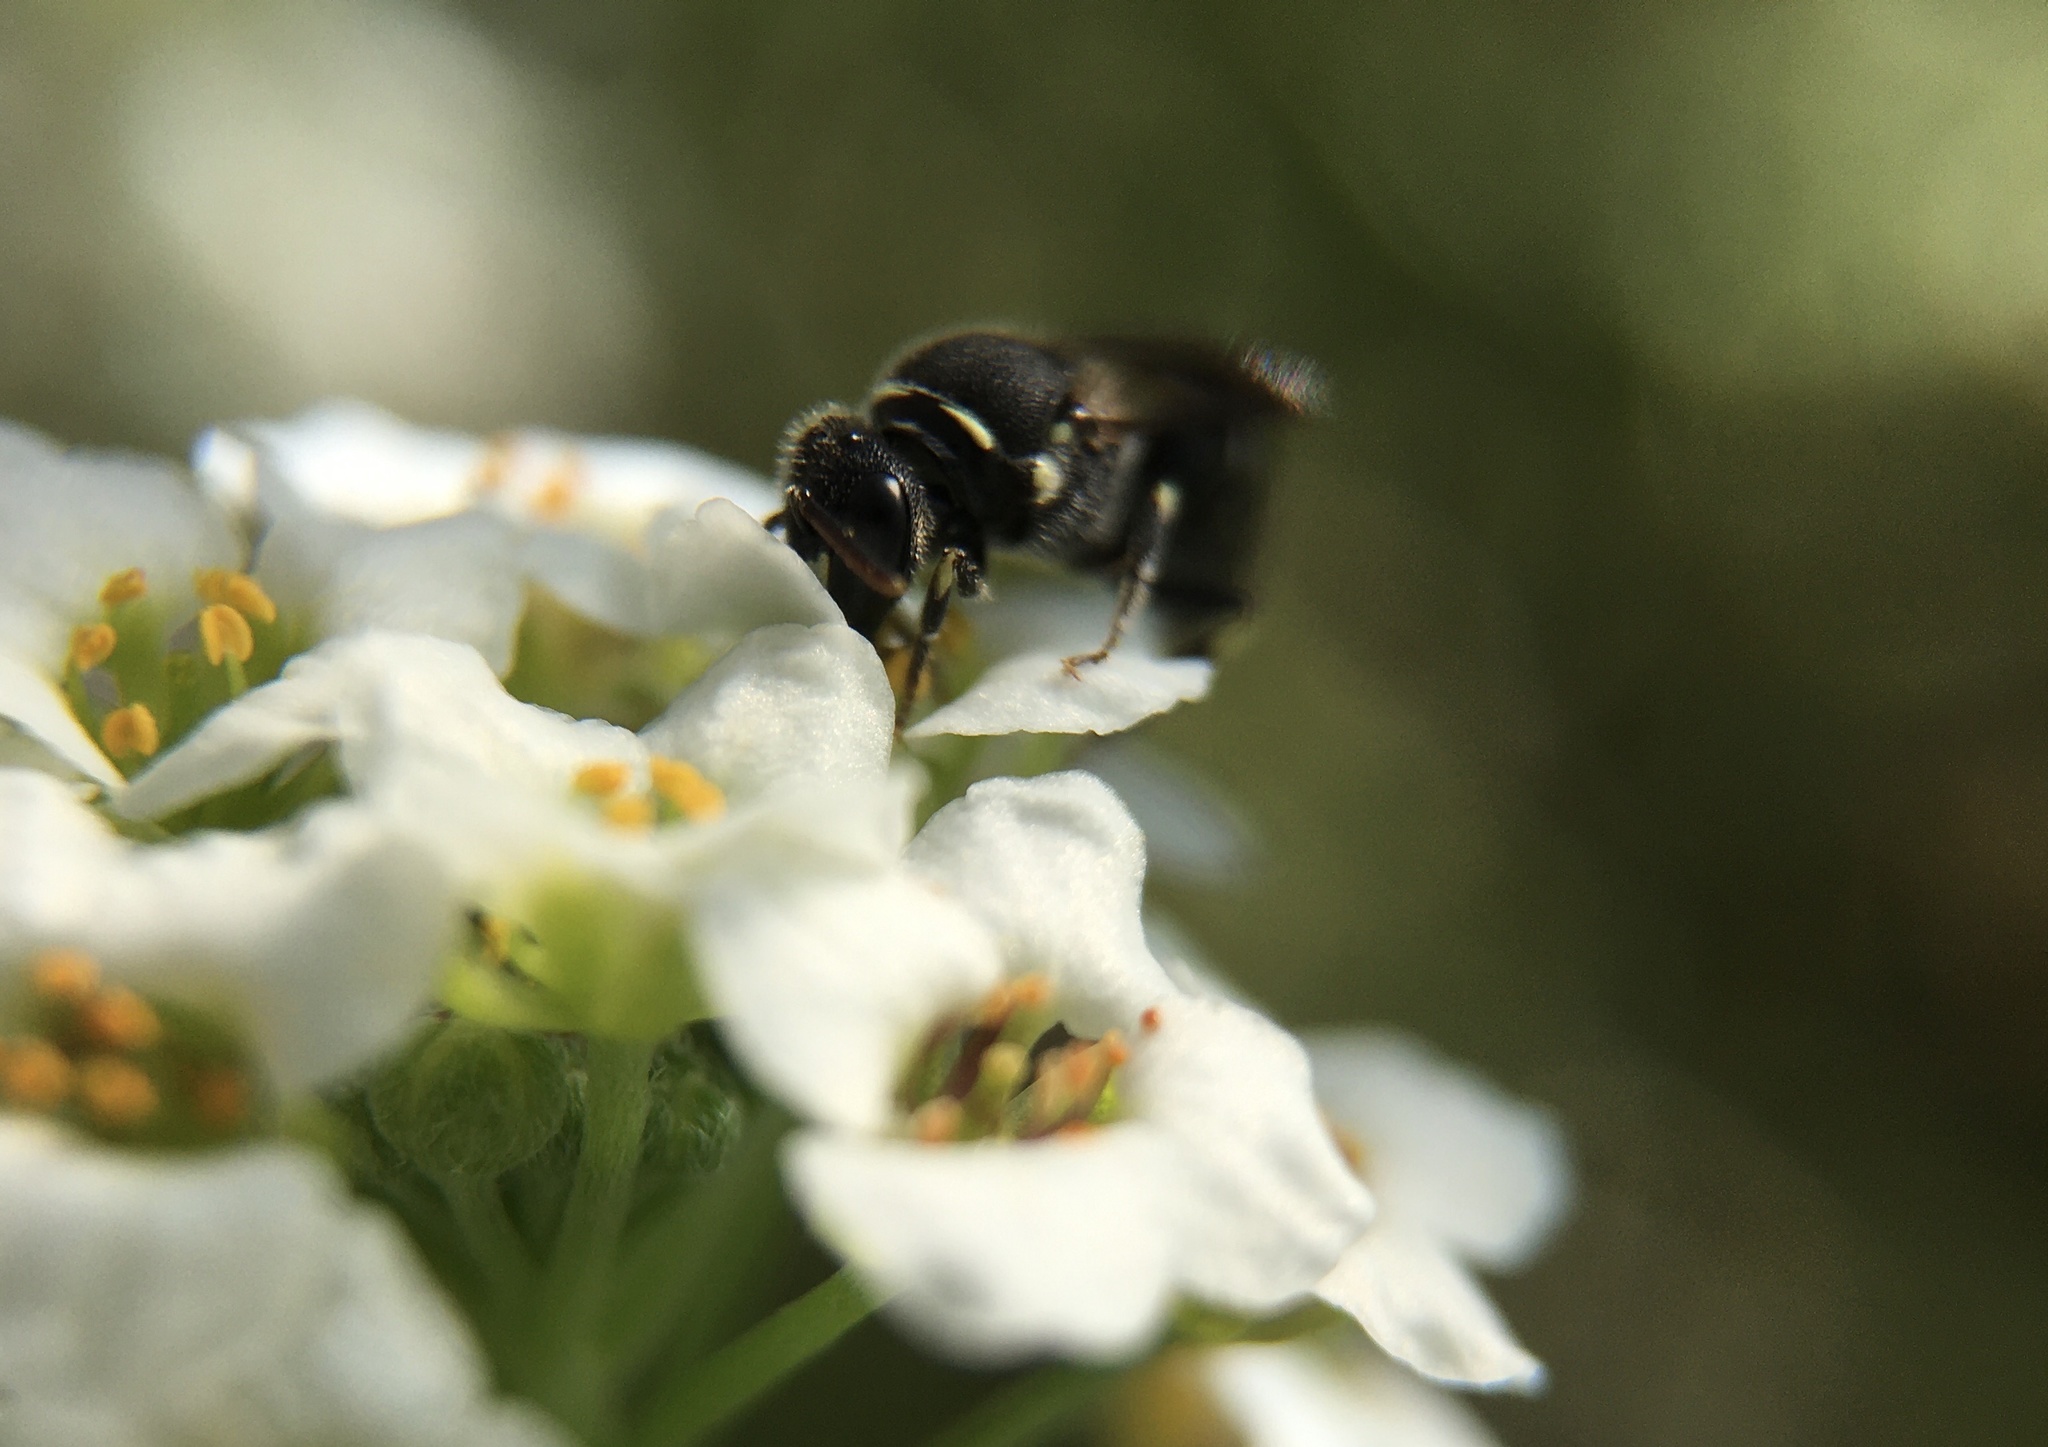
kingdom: Animalia
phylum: Arthropoda
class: Insecta
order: Hymenoptera
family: Colletidae
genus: Hylaeus
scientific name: Hylaeus
